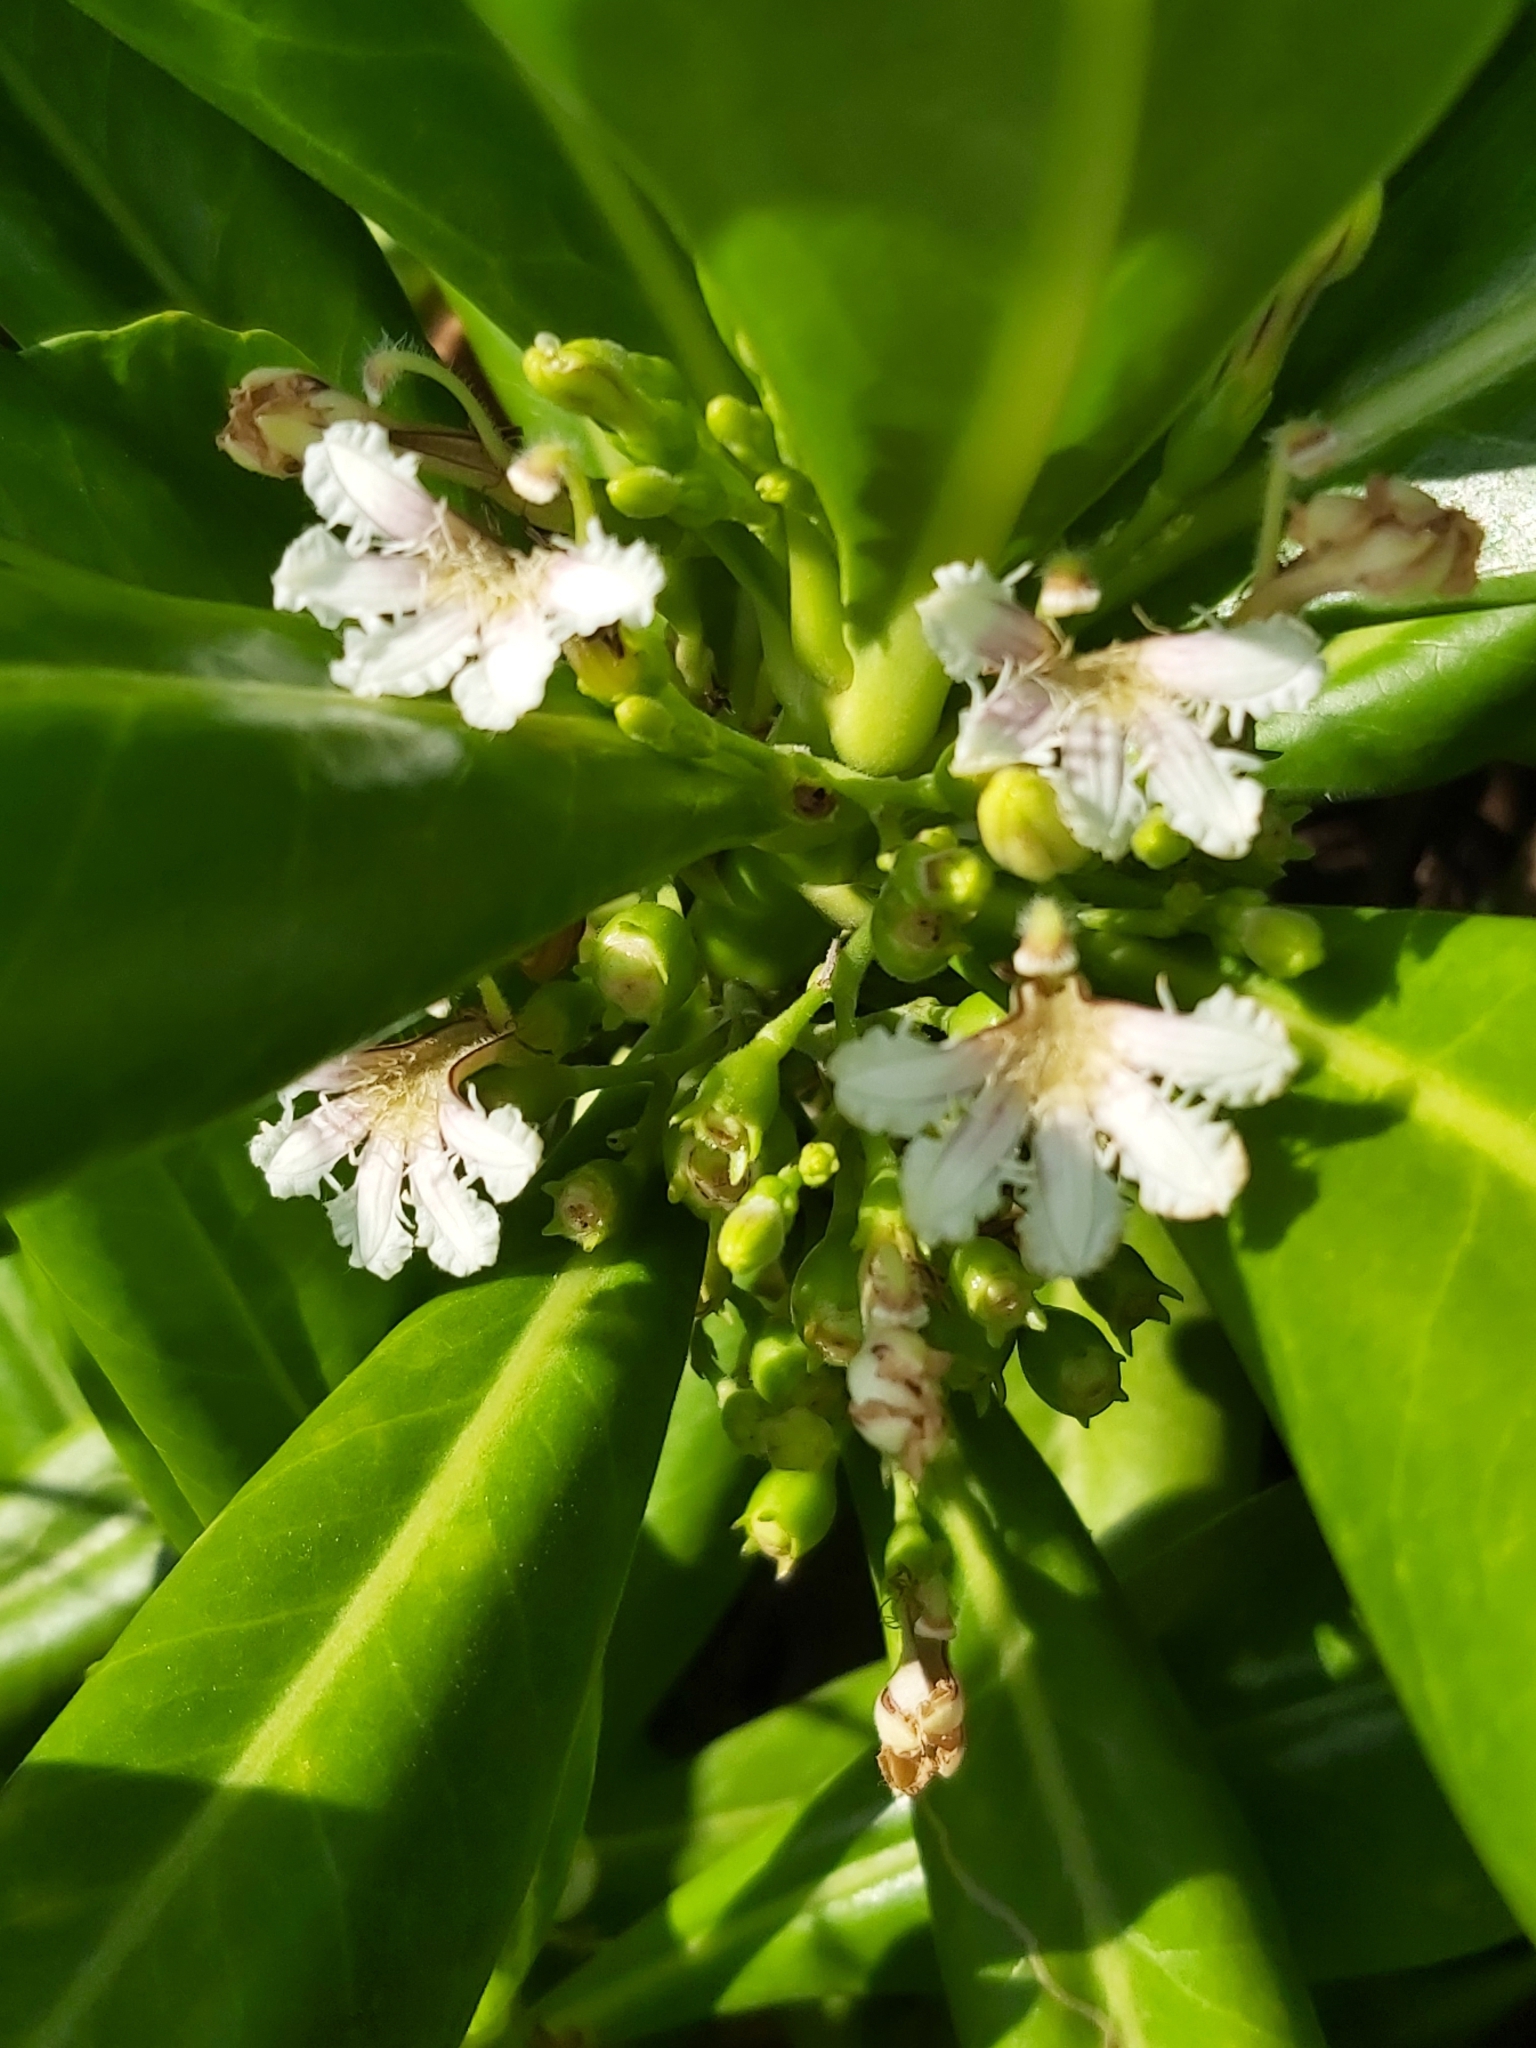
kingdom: Plantae
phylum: Tracheophyta
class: Magnoliopsida
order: Asterales
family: Goodeniaceae
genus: Scaevola
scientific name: Scaevola taccada
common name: Sea lettucetree
